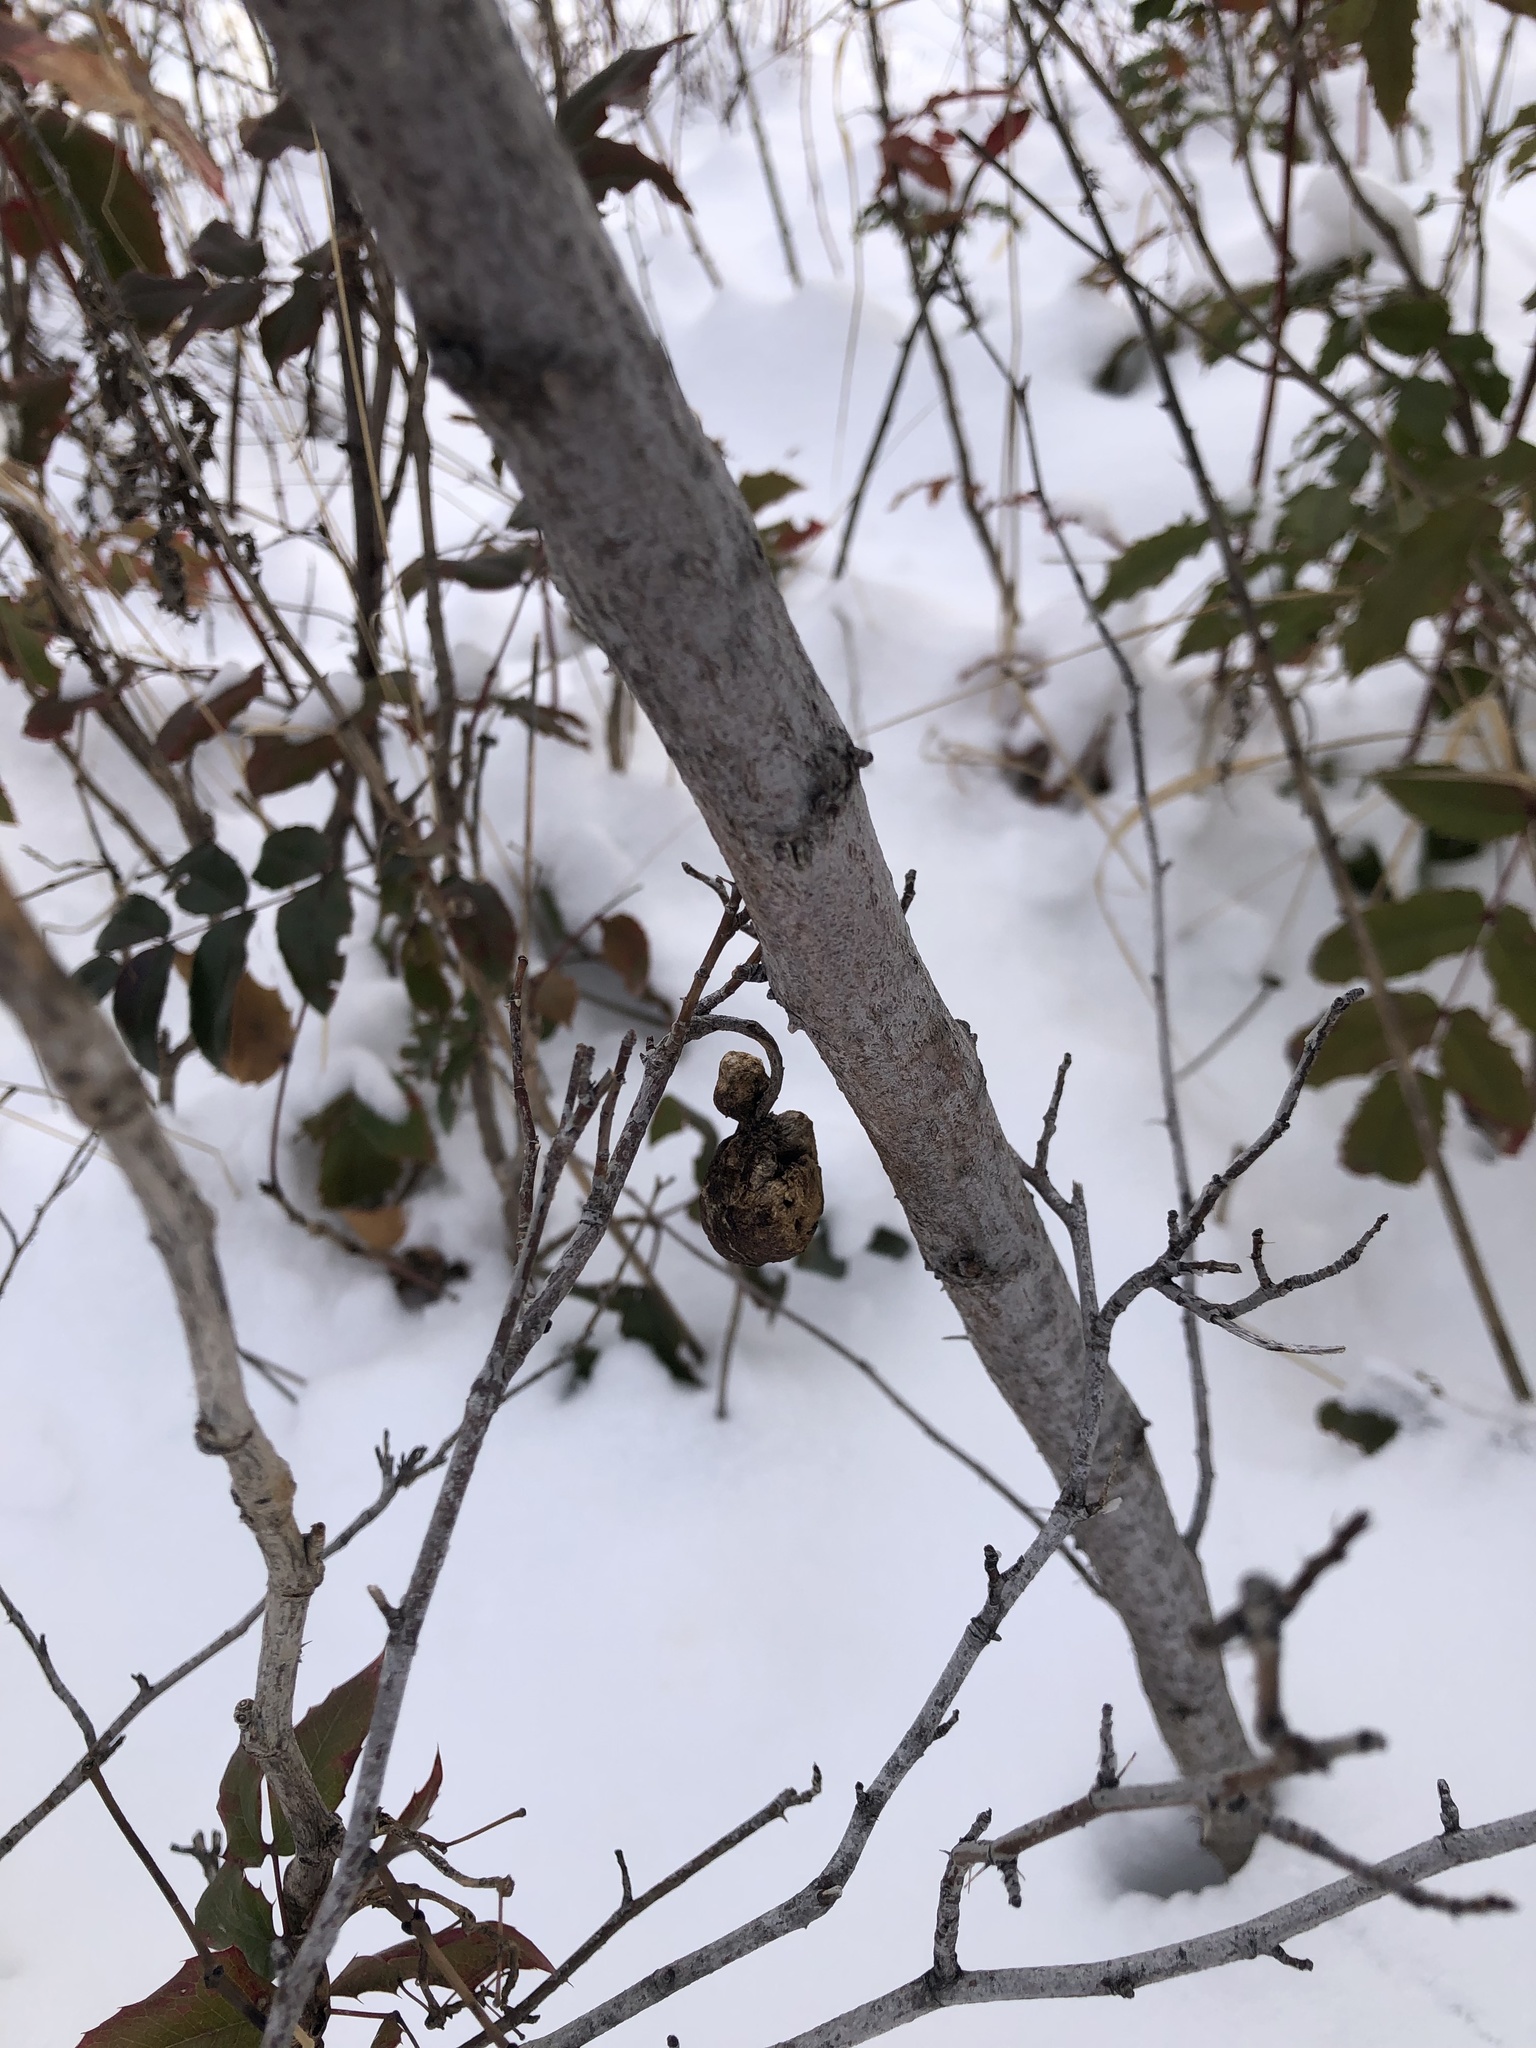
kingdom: Animalia
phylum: Arthropoda
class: Insecta
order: Hymenoptera
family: Cynipidae
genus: Diplolepis
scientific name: Diplolepis variabilis
